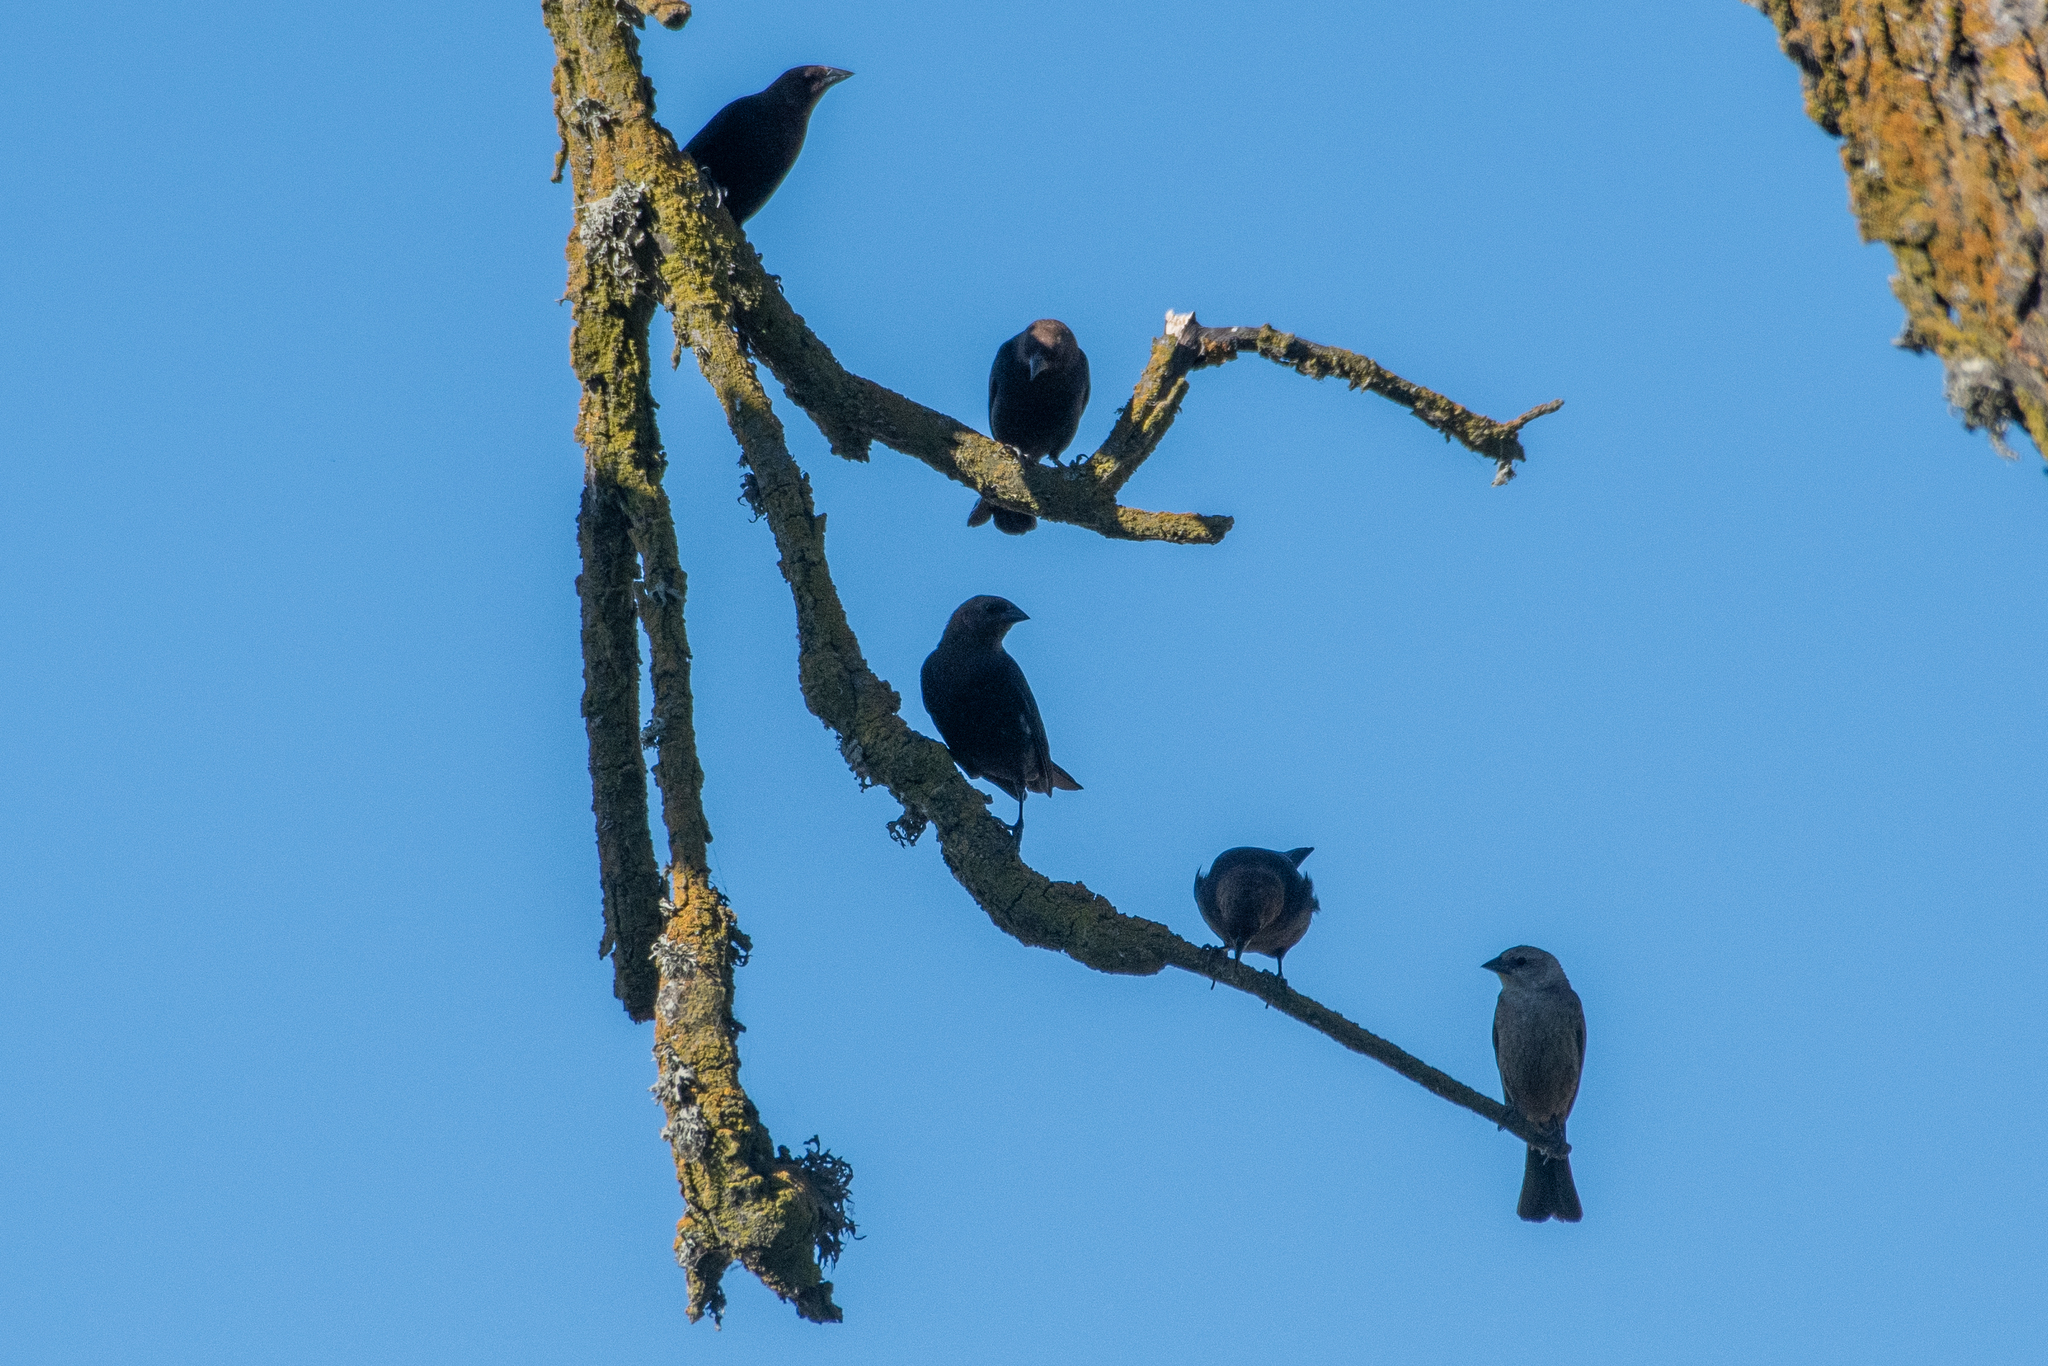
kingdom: Animalia
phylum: Chordata
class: Aves
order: Passeriformes
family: Icteridae
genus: Molothrus
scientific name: Molothrus ater
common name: Brown-headed cowbird
